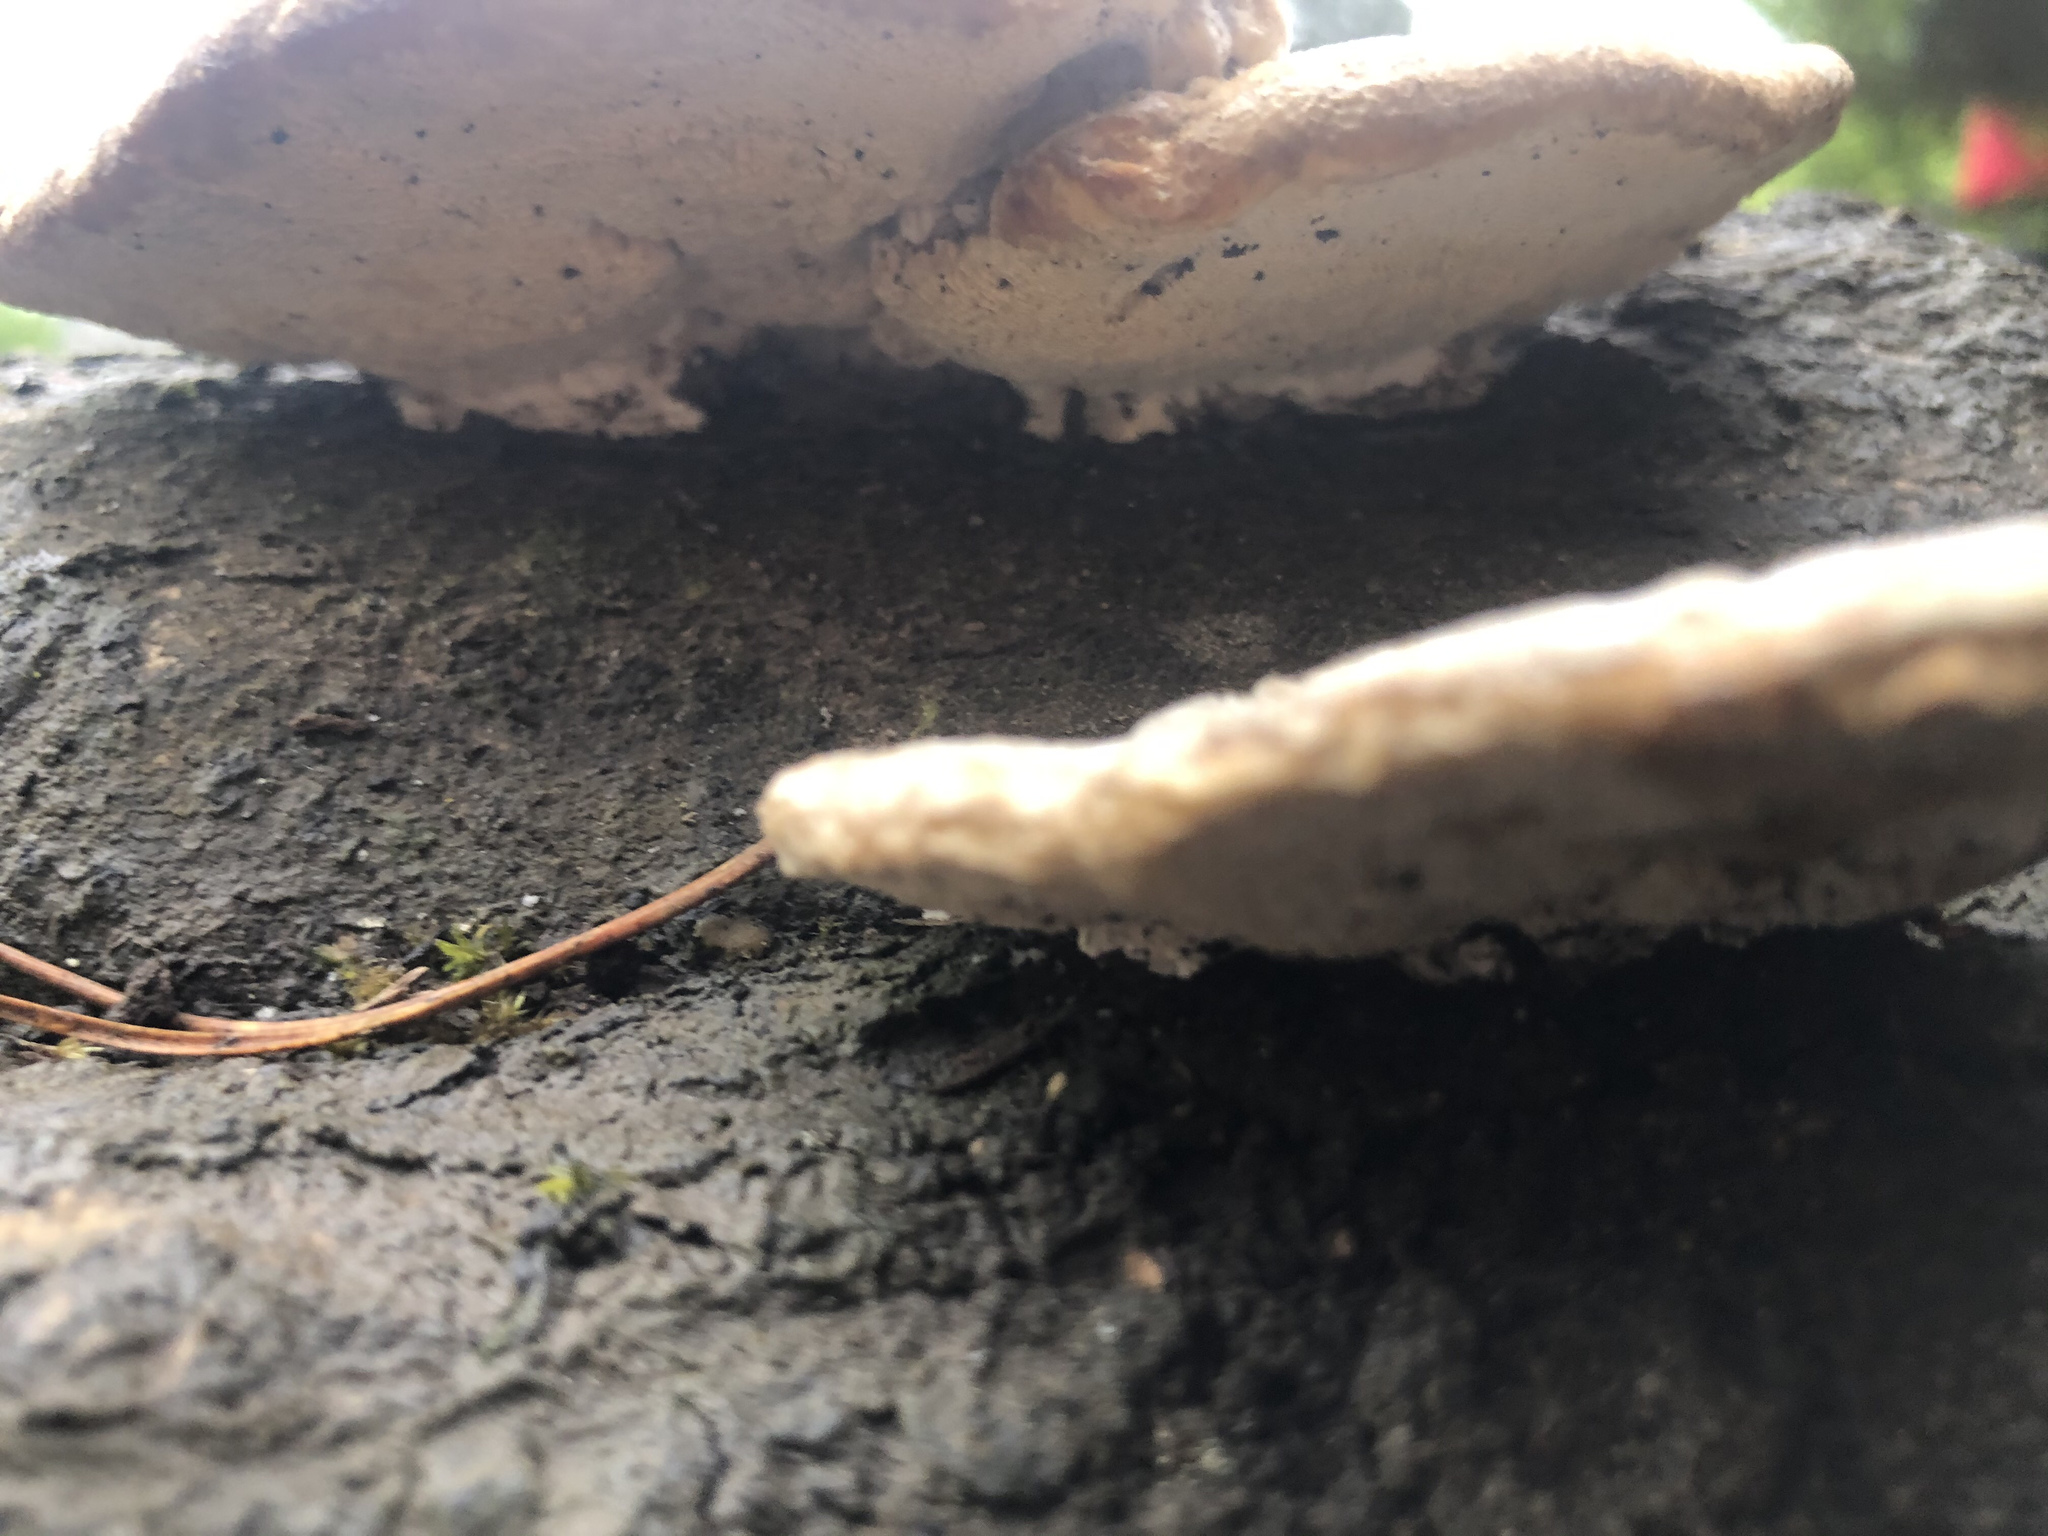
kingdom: Fungi
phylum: Basidiomycota
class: Agaricomycetes
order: Polyporales
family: Polyporaceae
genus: Trametes
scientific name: Trametes hirsuta
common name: Hairy bracket
